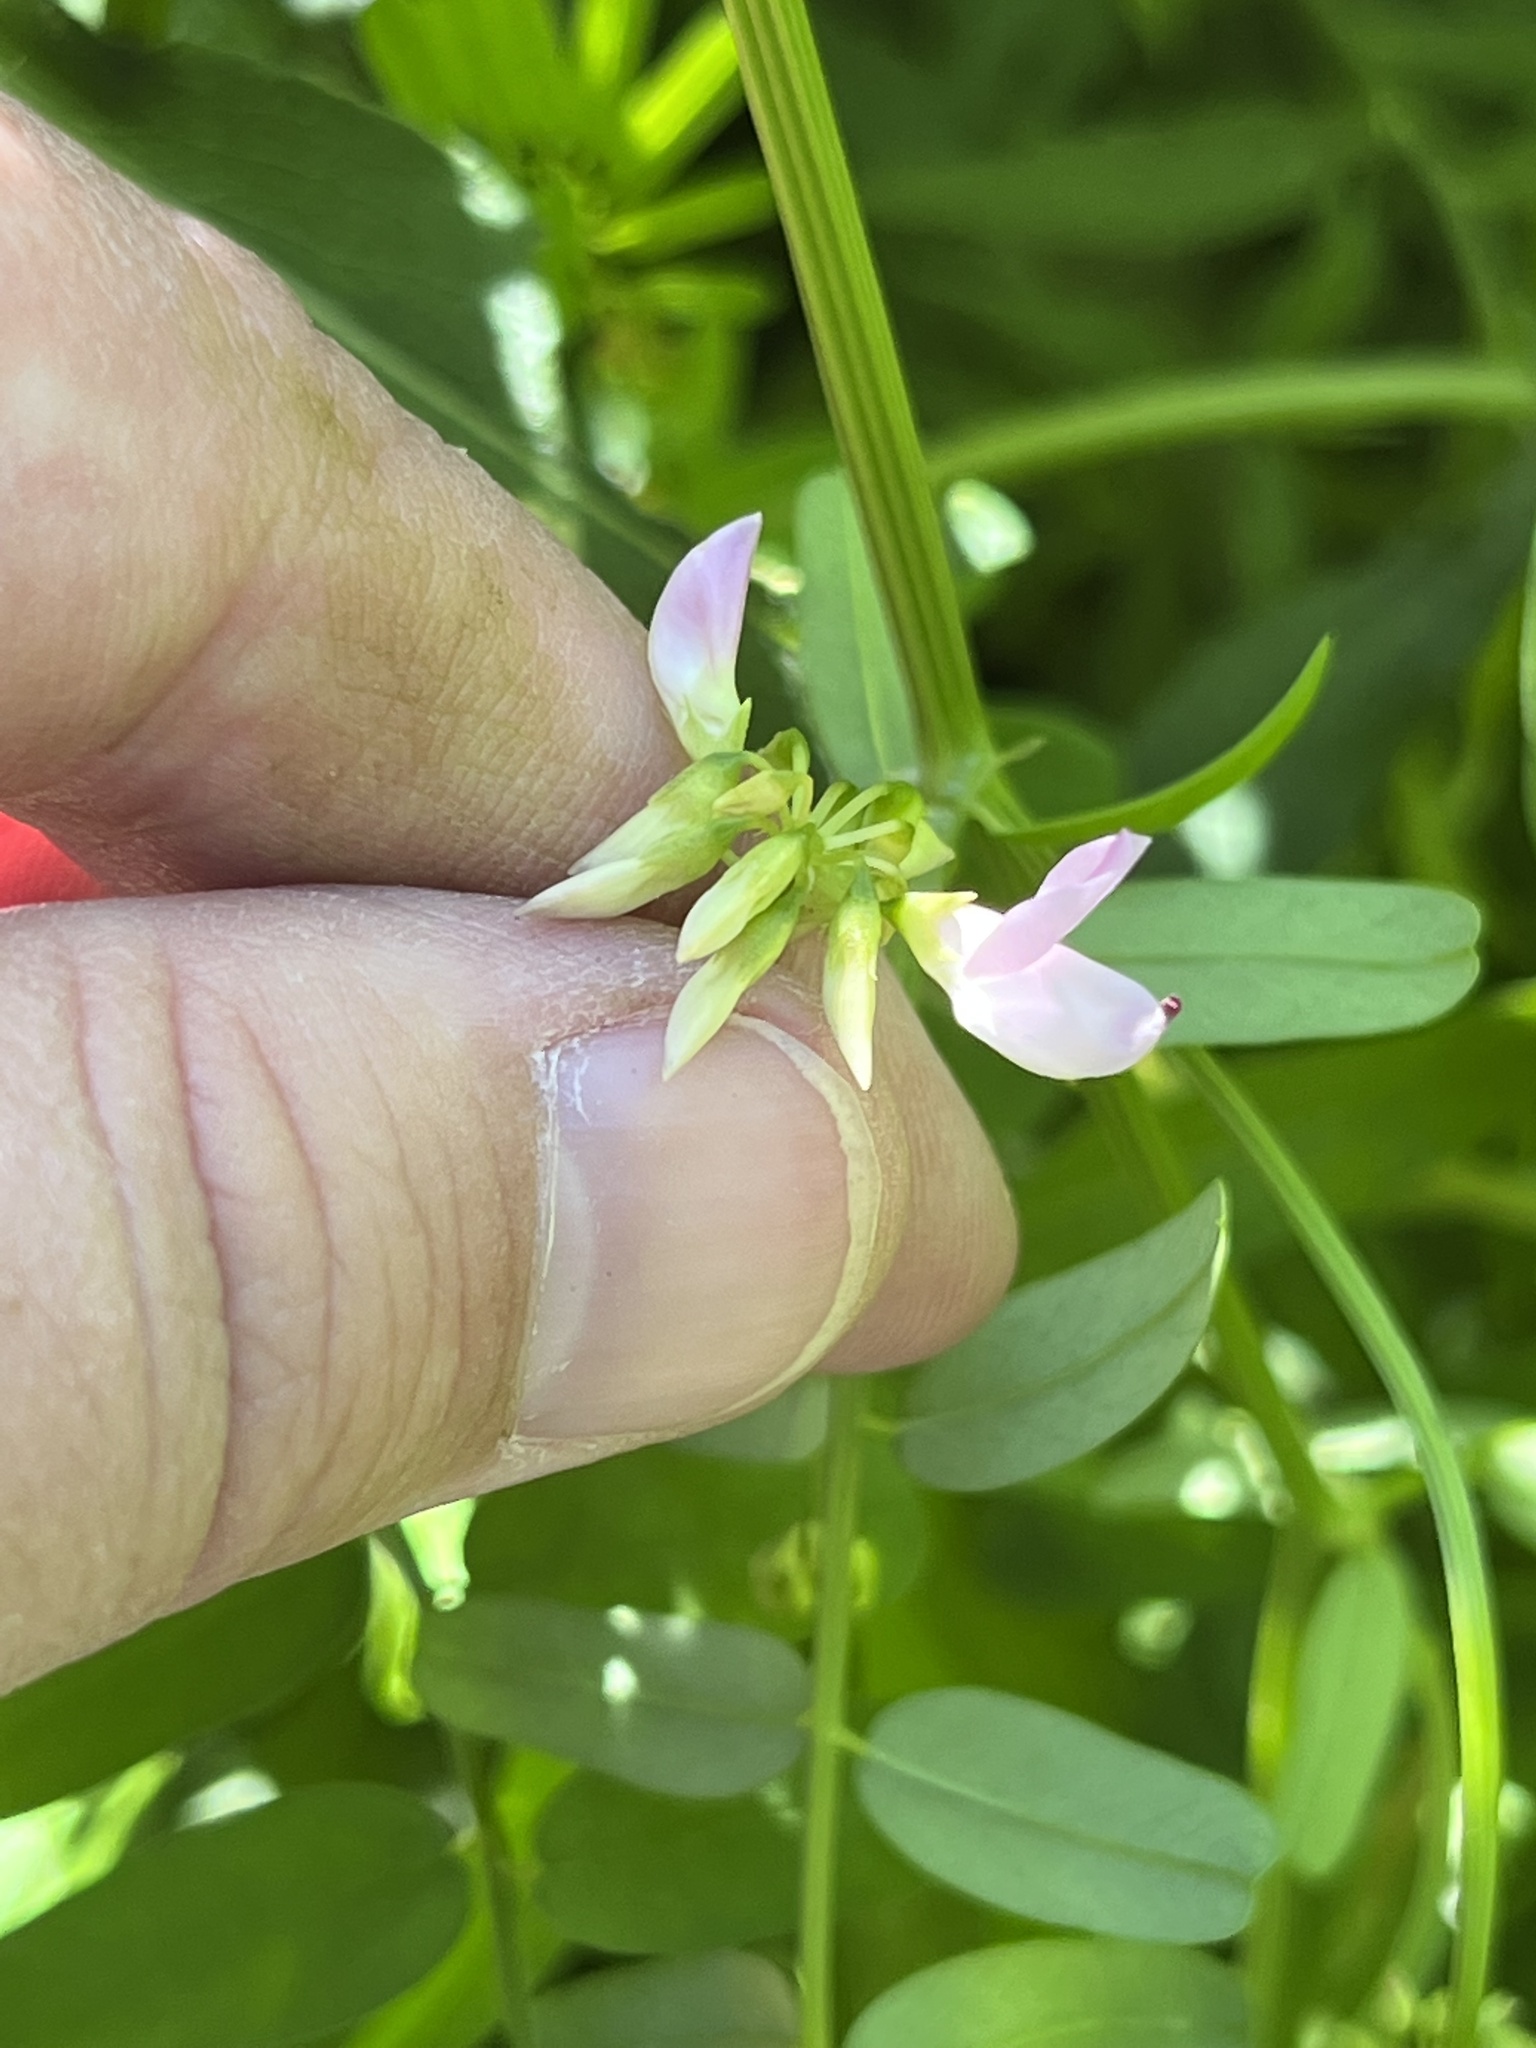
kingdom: Plantae
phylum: Tracheophyta
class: Magnoliopsida
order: Fabales
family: Fabaceae
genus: Coronilla
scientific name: Coronilla varia
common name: Crownvetch
